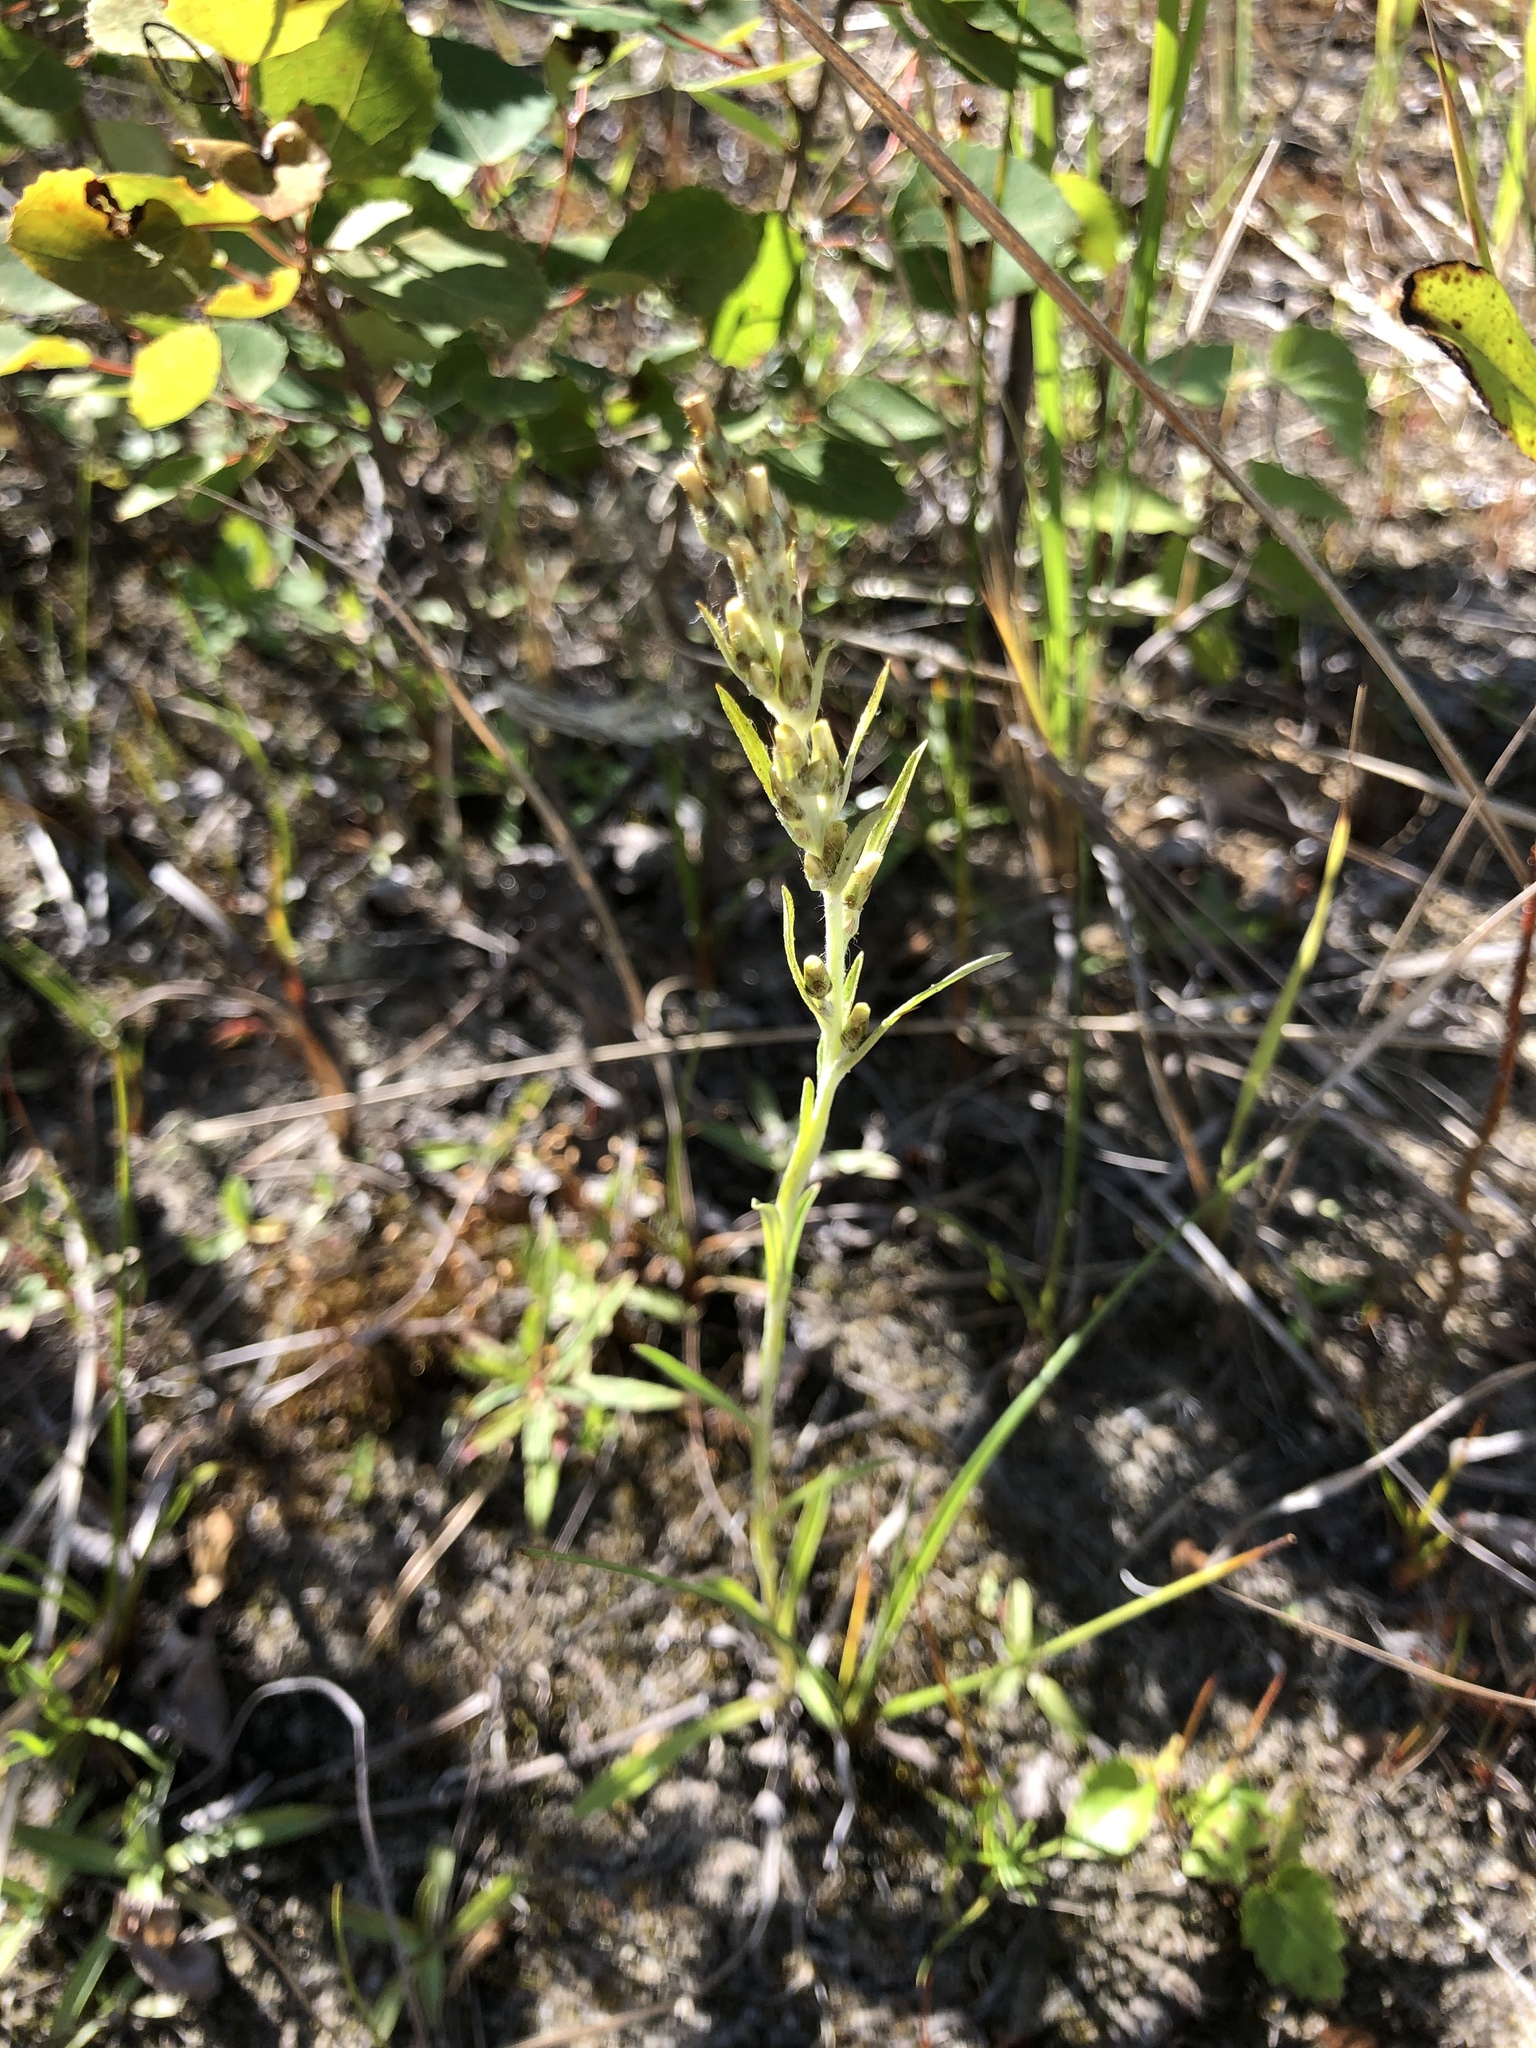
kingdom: Plantae
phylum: Tracheophyta
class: Magnoliopsida
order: Asterales
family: Asteraceae
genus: Omalotheca
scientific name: Omalotheca sylvatica
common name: Heath cudweed
